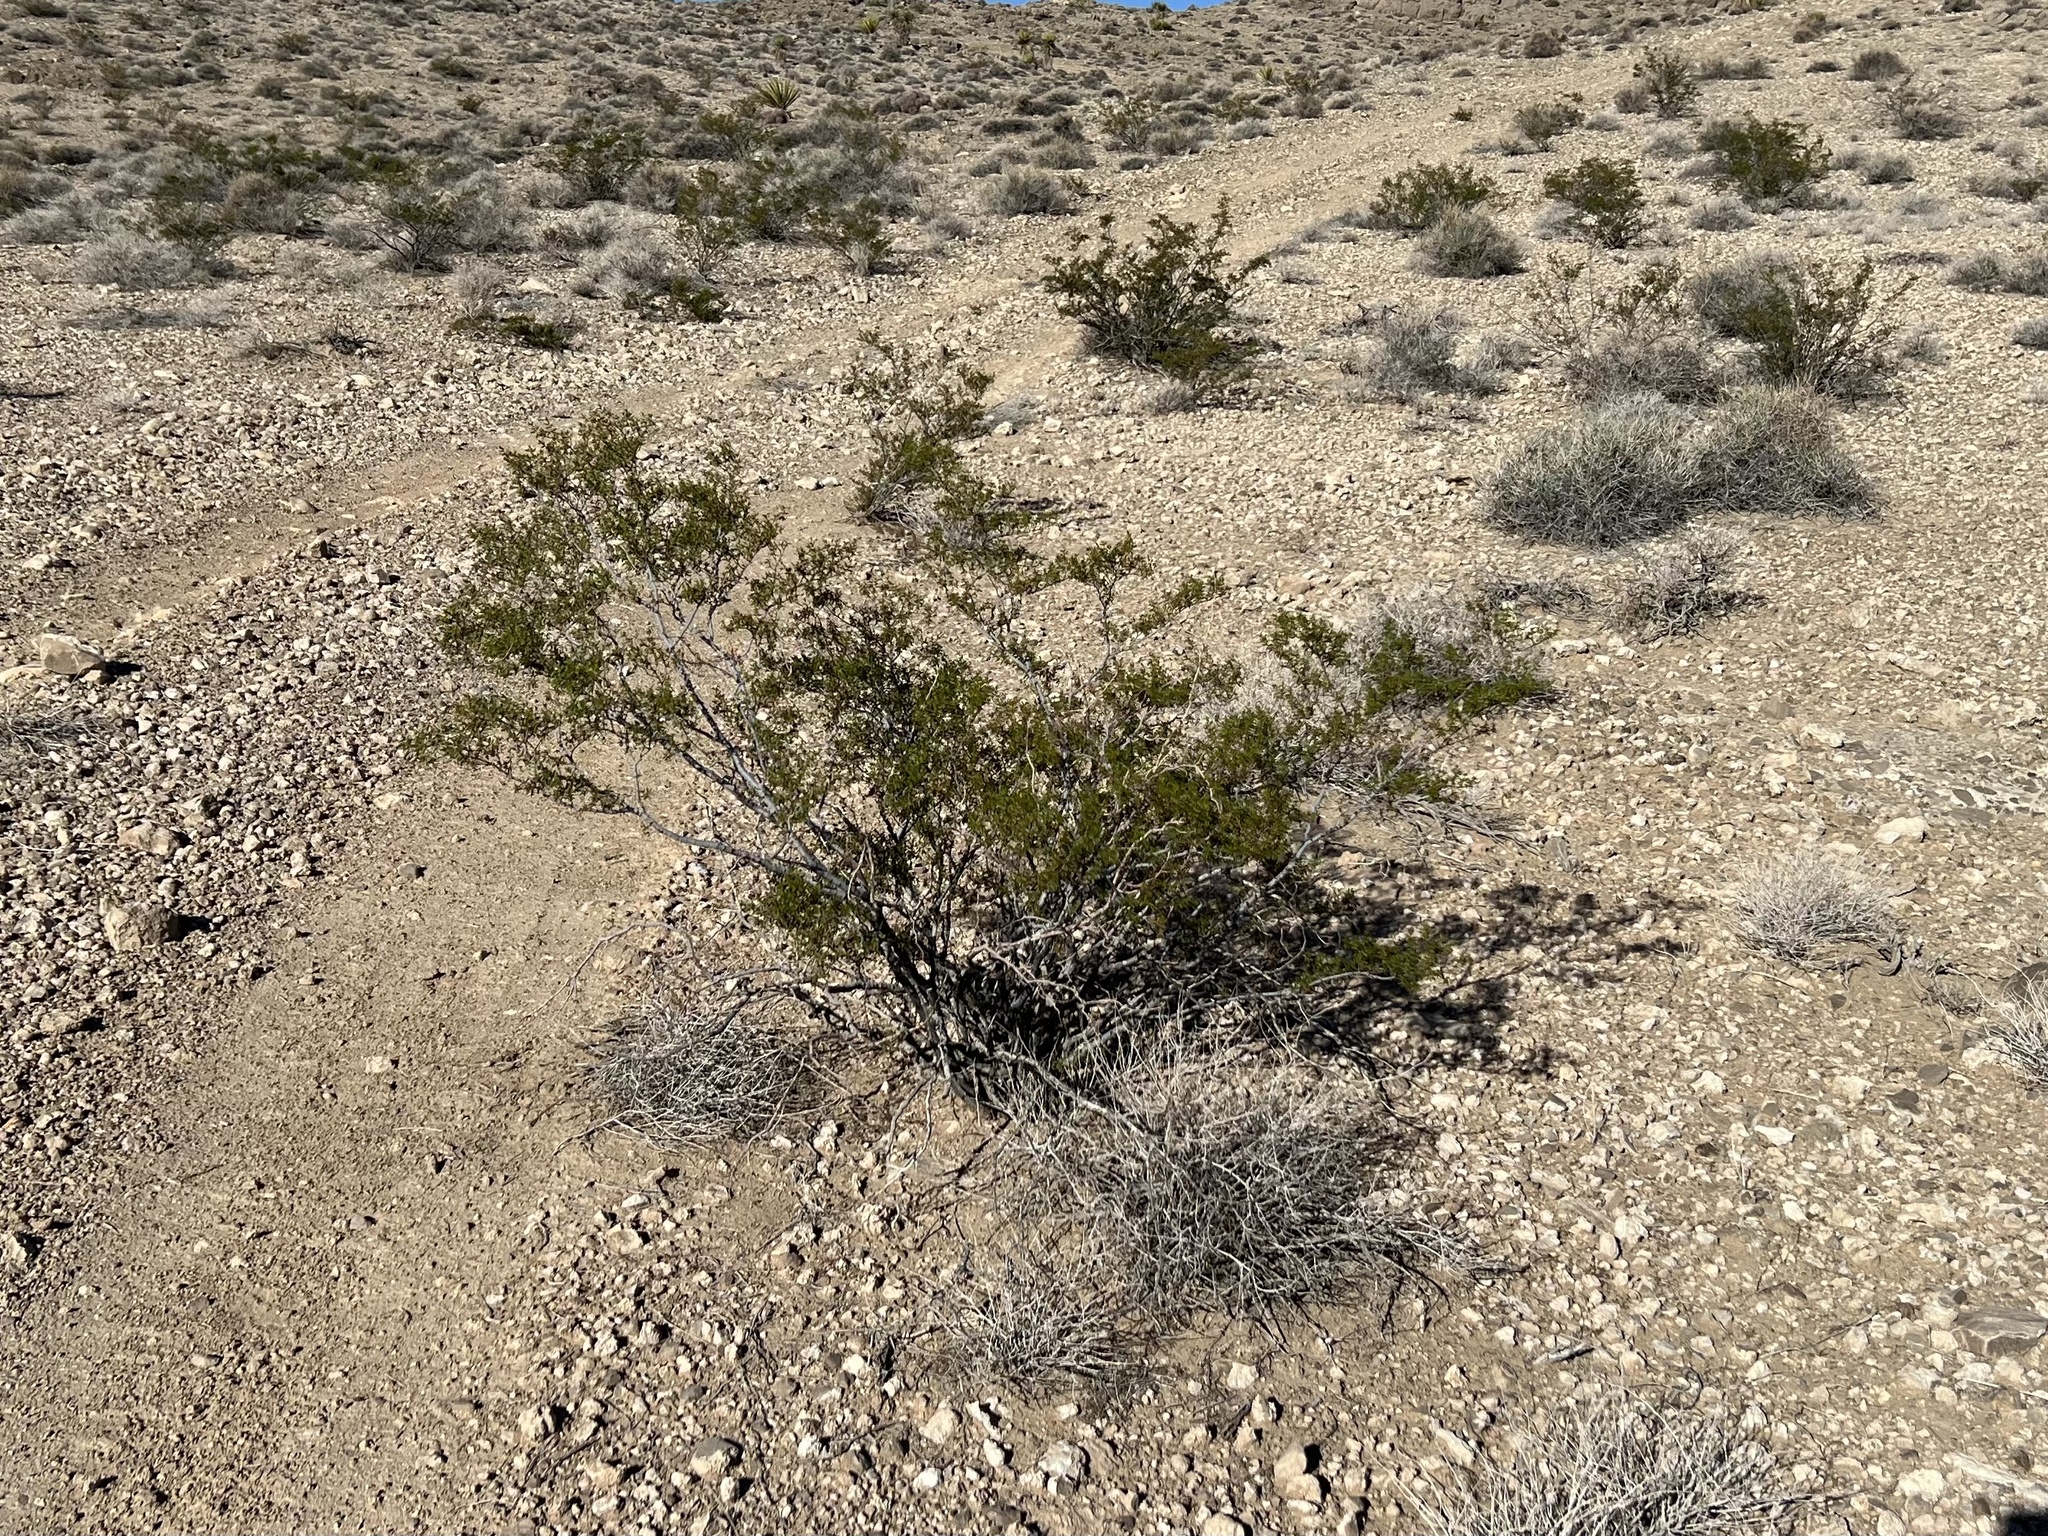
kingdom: Plantae
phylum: Tracheophyta
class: Magnoliopsida
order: Zygophyllales
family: Zygophyllaceae
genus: Larrea
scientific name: Larrea tridentata
